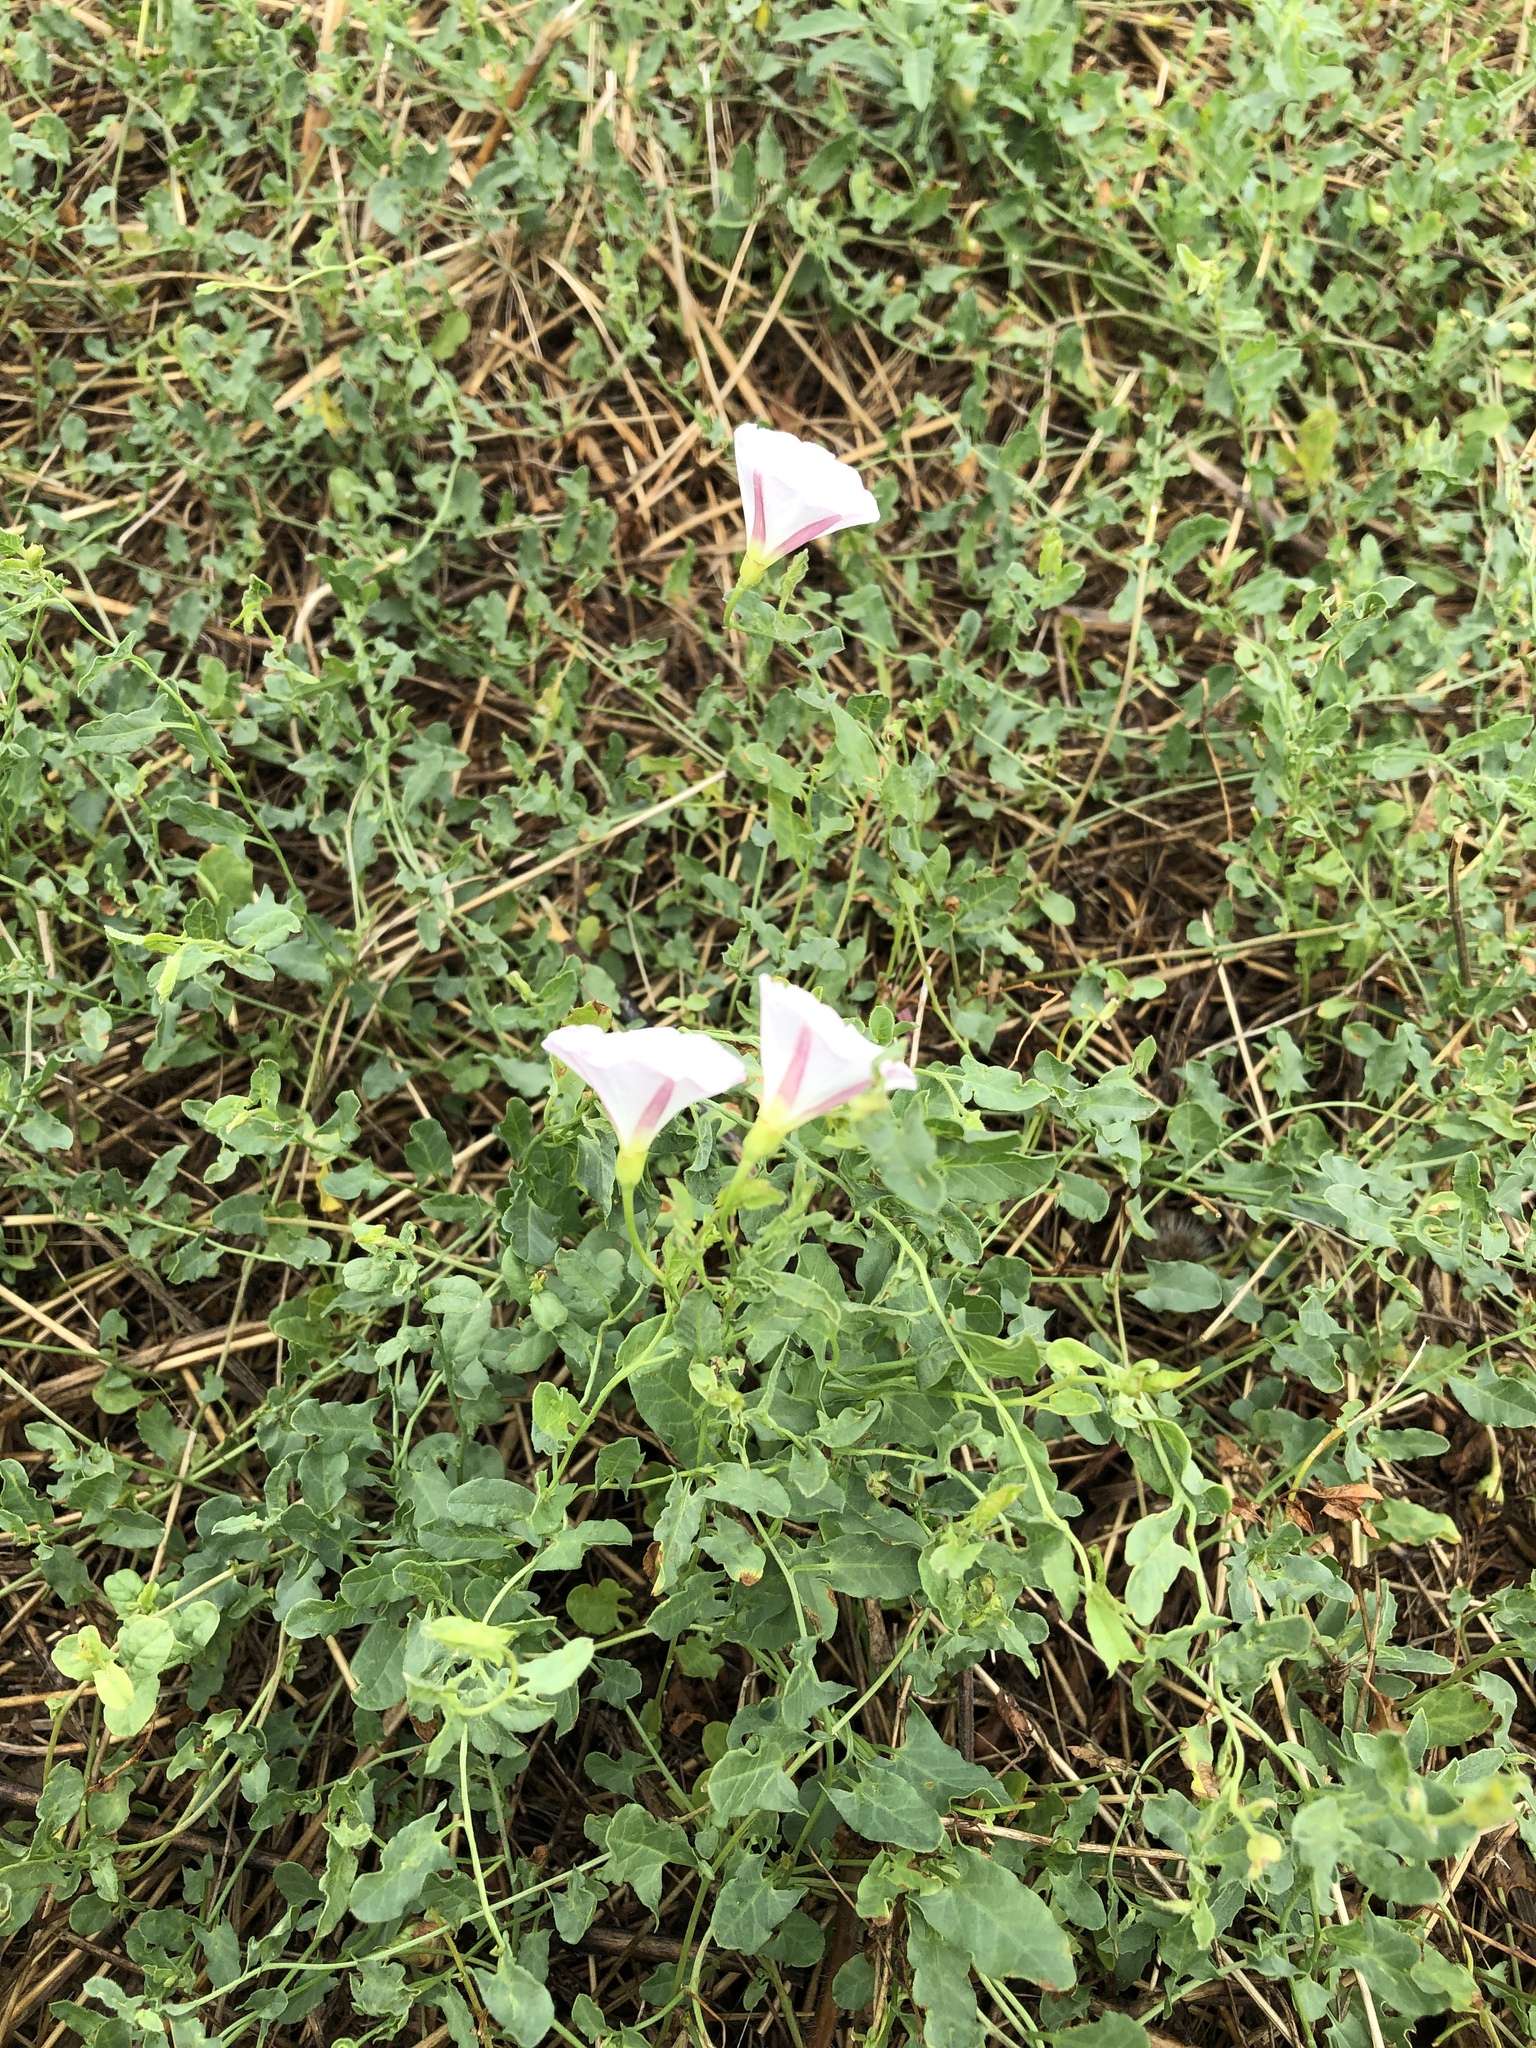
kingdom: Plantae
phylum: Tracheophyta
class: Magnoliopsida
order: Solanales
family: Convolvulaceae
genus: Convolvulus
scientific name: Convolvulus arvensis
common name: Field bindweed
